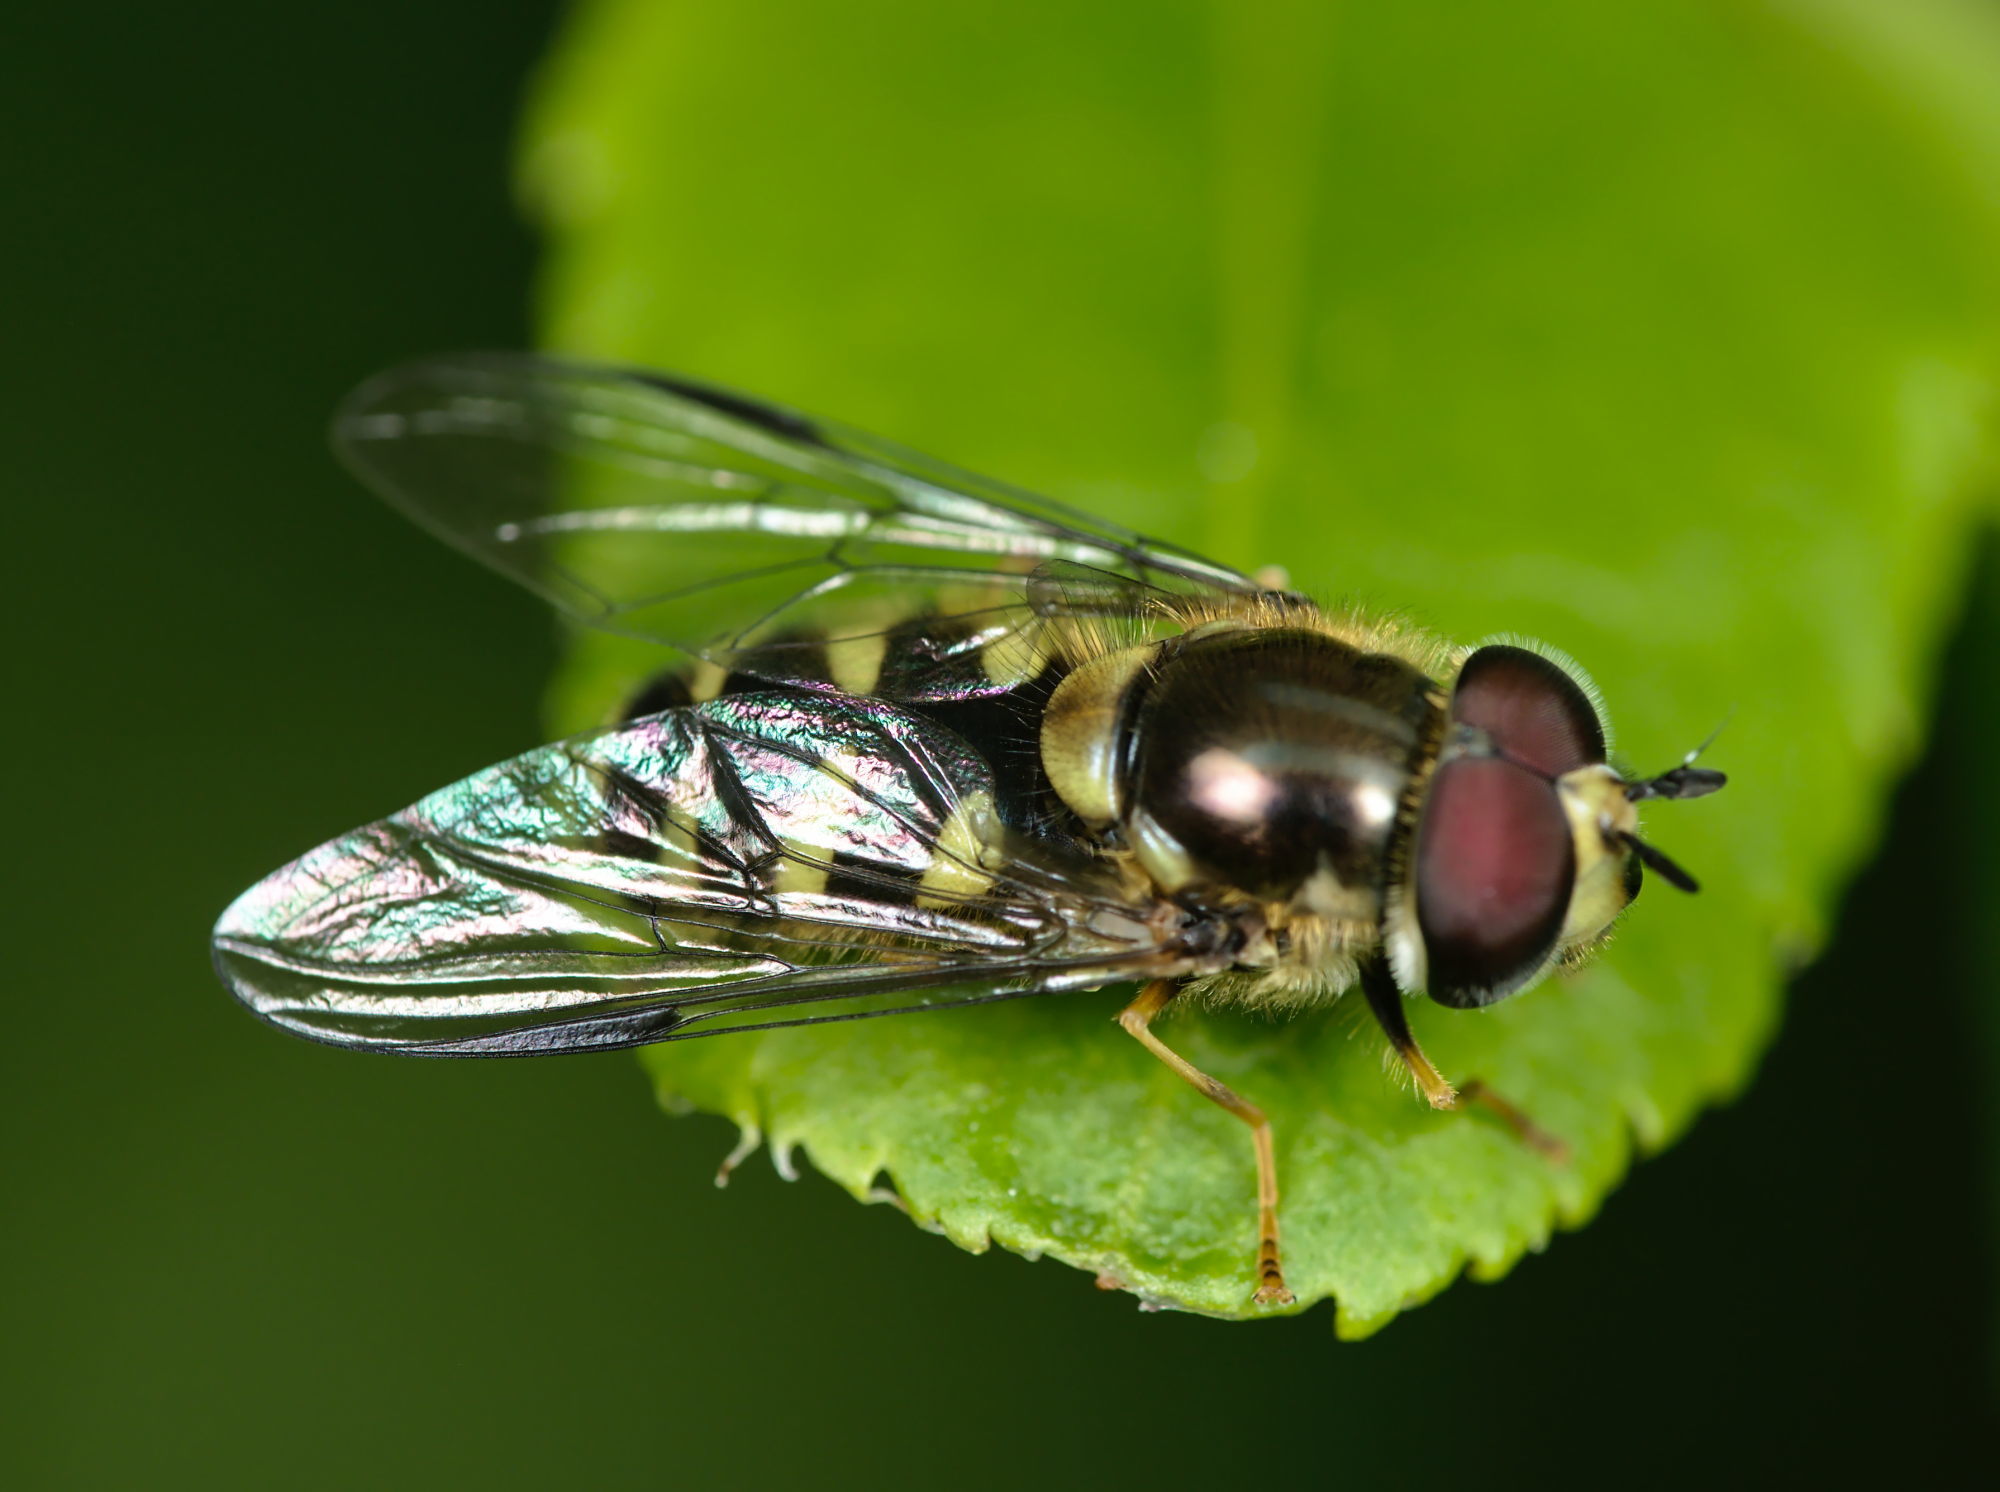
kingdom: Animalia
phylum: Arthropoda
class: Insecta
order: Diptera
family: Syrphidae
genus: Dasysyrphus
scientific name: Dasysyrphus albostriatus
